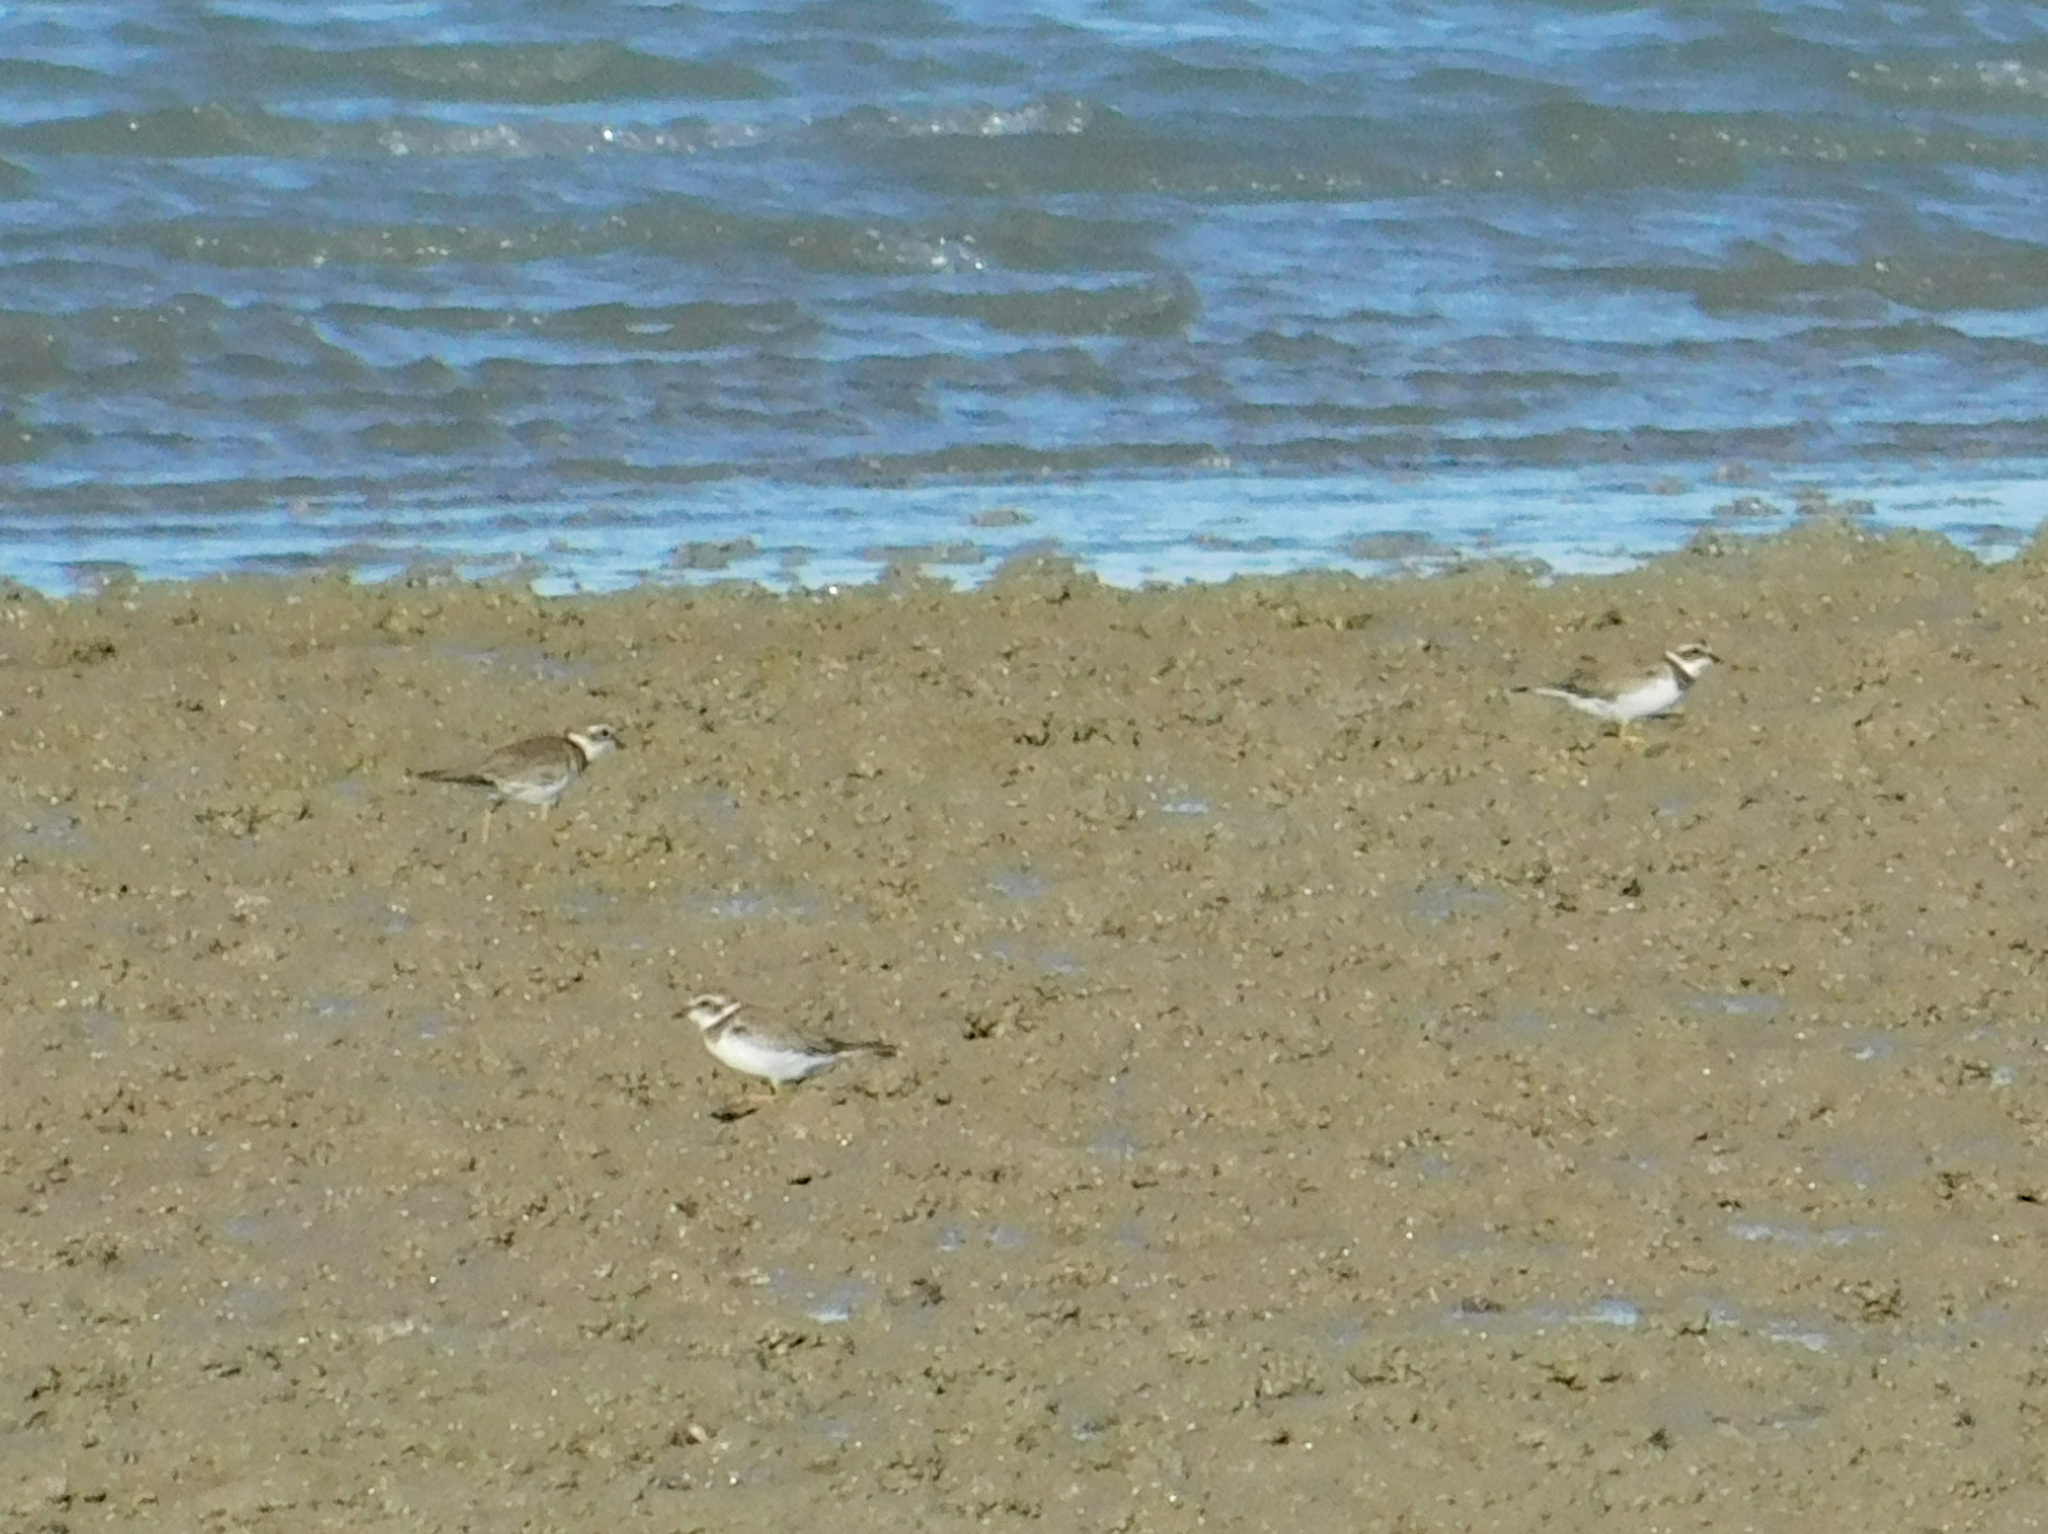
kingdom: Animalia
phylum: Chordata
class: Aves
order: Charadriiformes
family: Charadriidae
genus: Charadrius
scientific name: Charadrius semipalmatus
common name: Semipalmated plover
